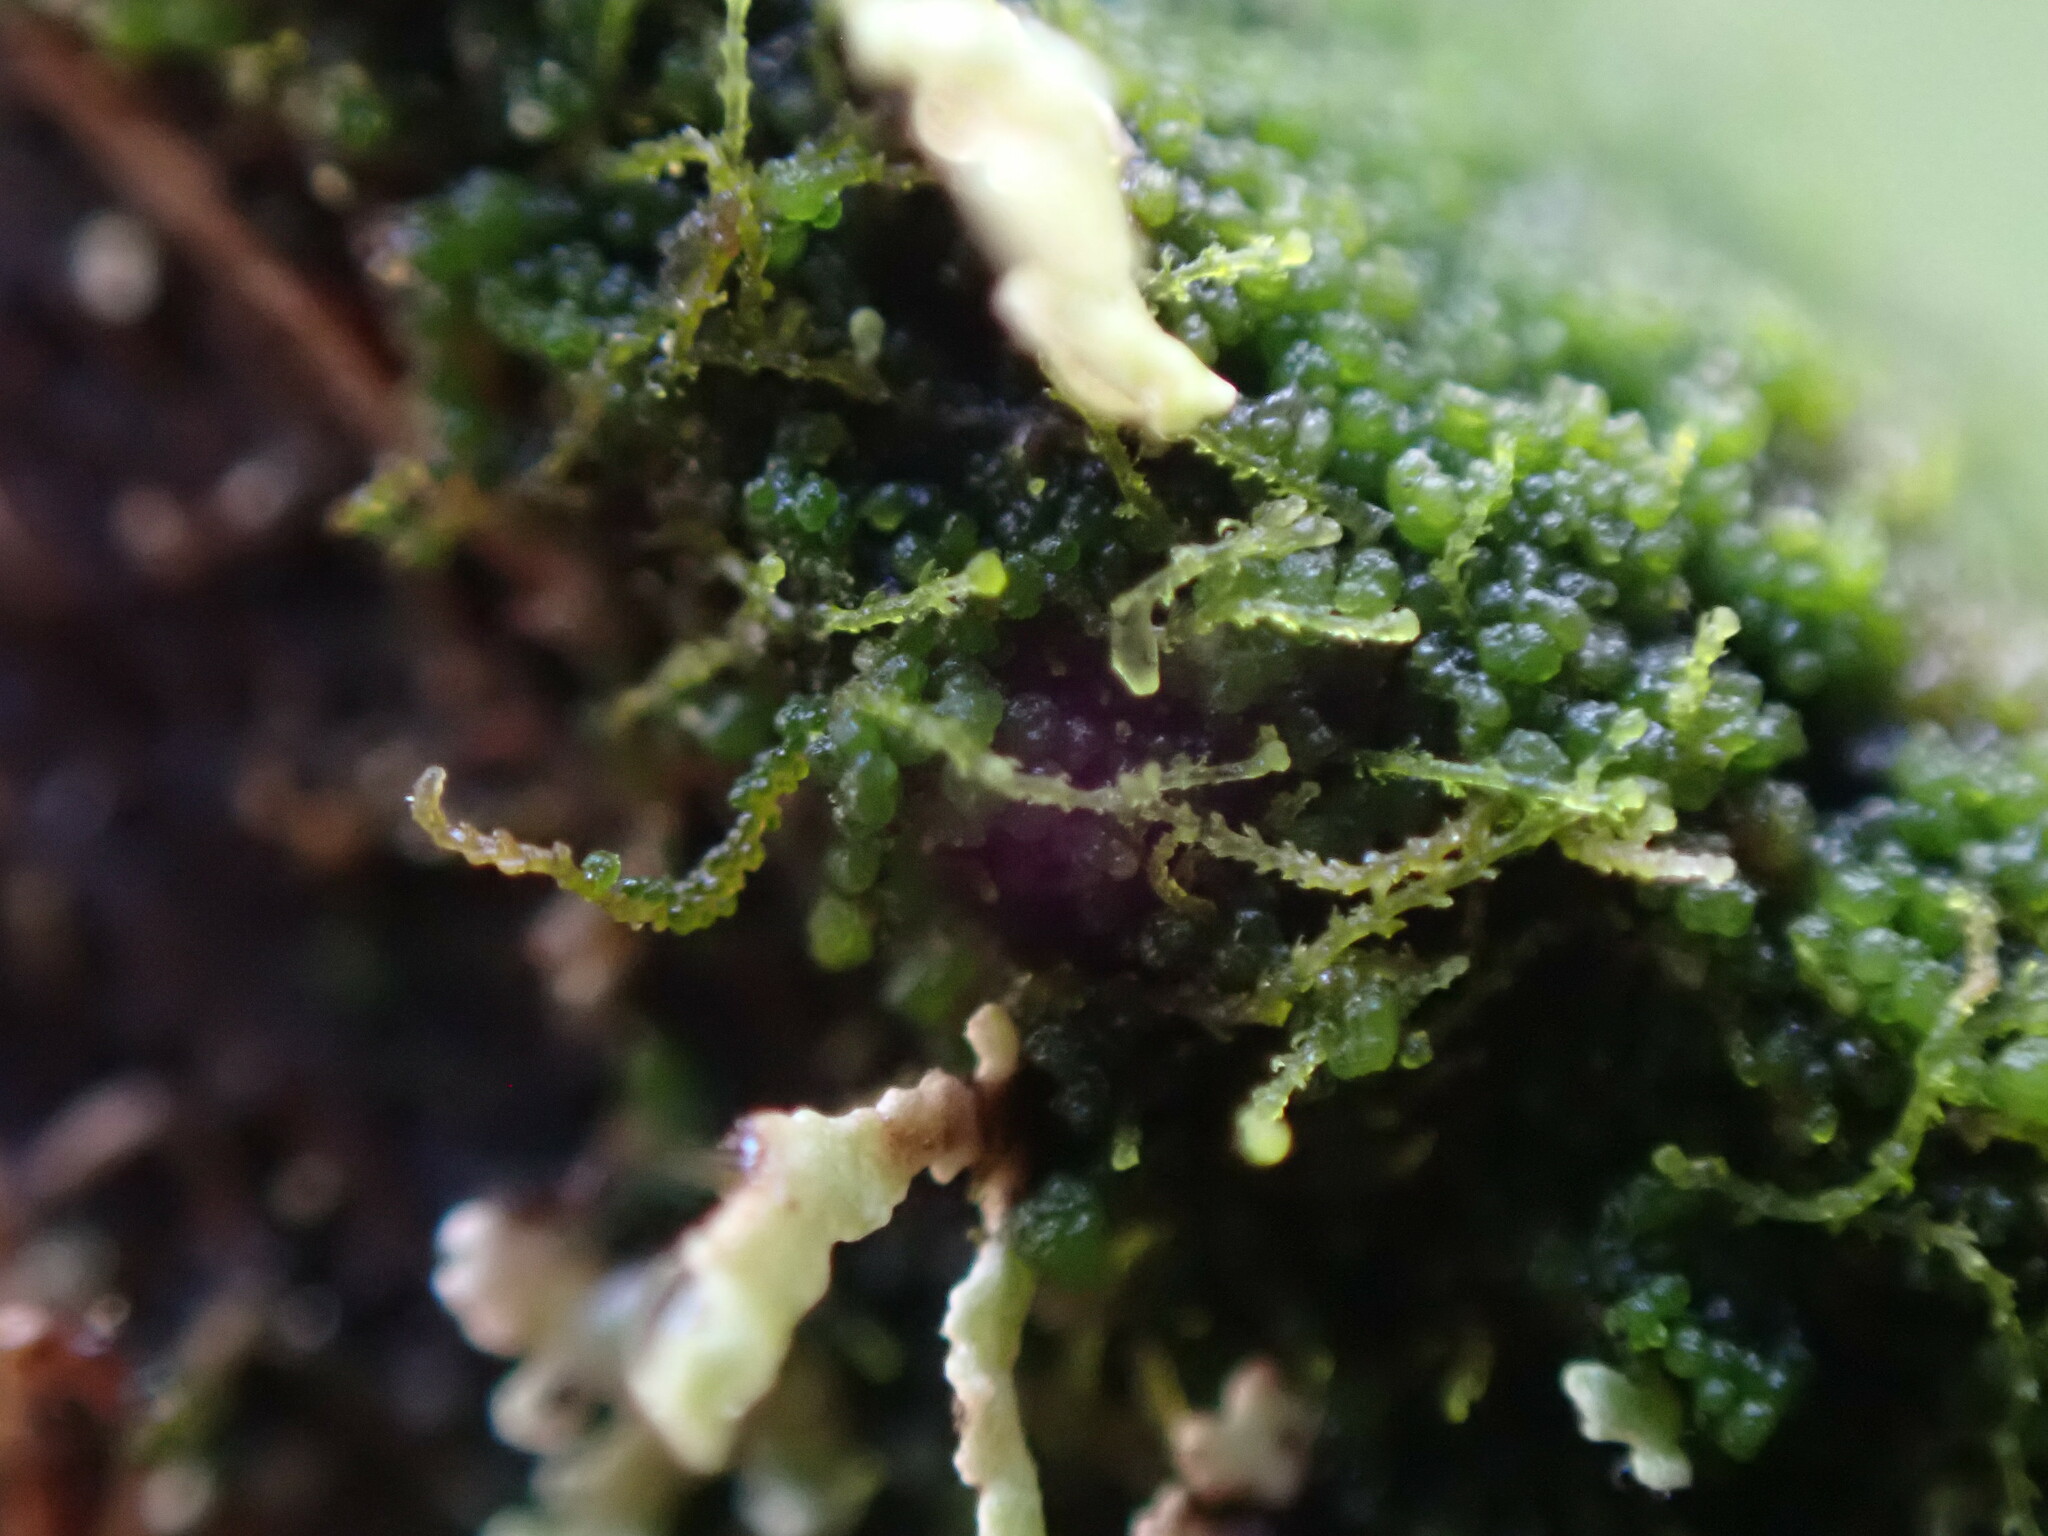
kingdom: Plantae
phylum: Marchantiophyta
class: Jungermanniopsida
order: Jungermanniales
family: Cephaloziellaceae
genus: Cephaloziella
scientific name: Cephaloziella divaricata
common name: Spreading threadwort
